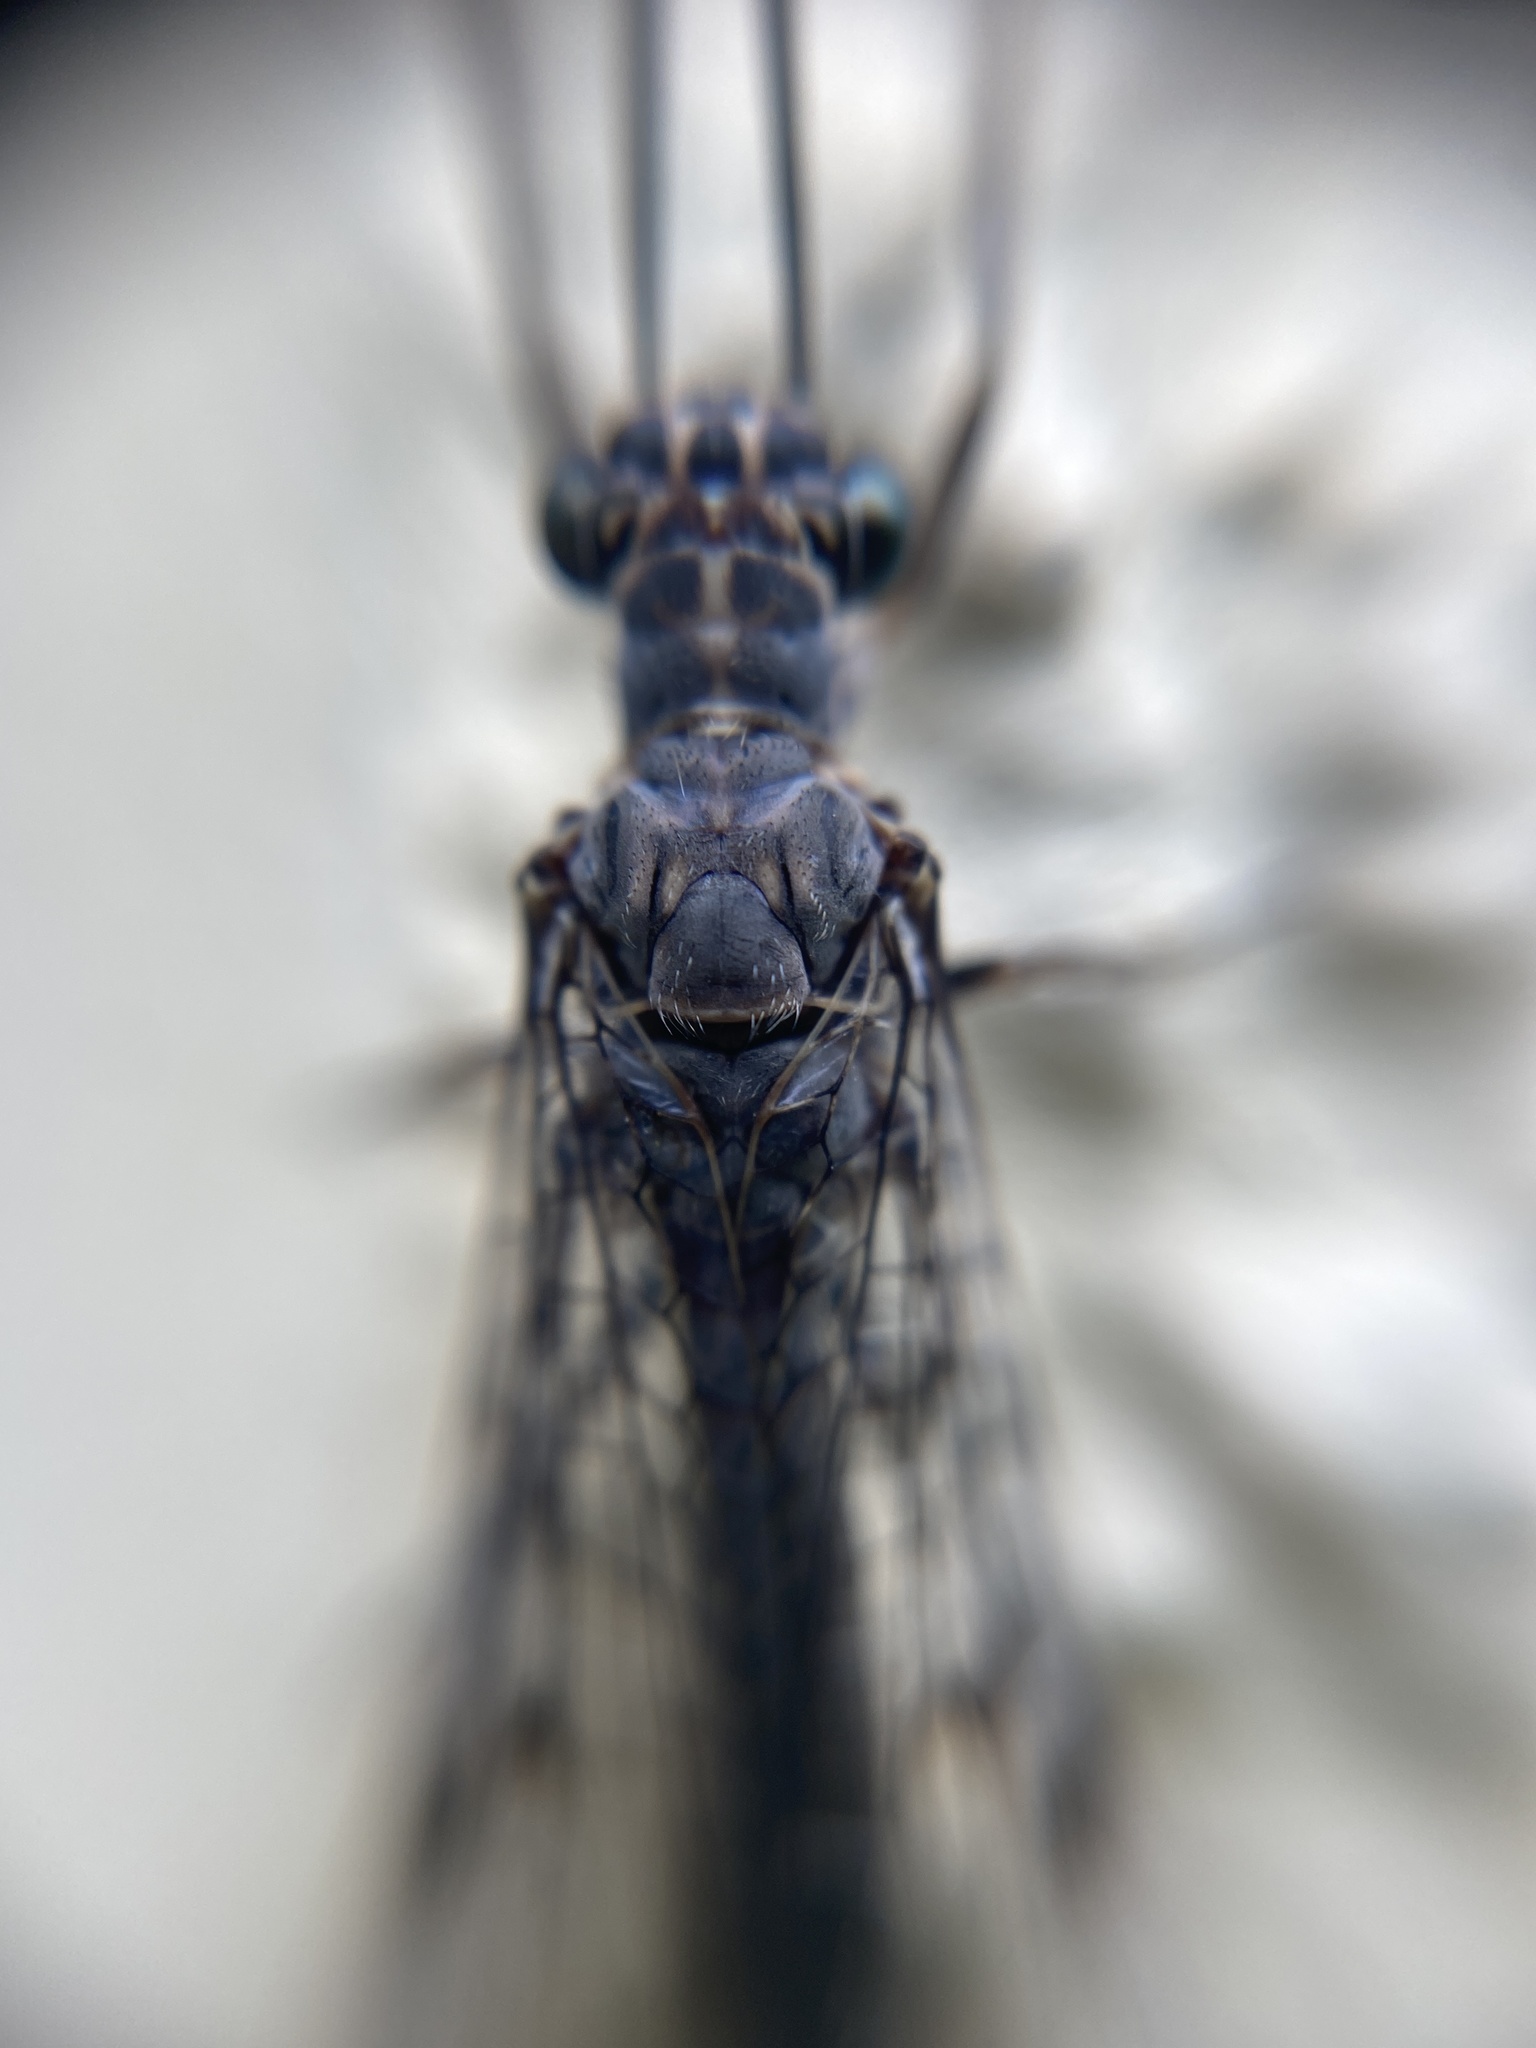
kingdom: Animalia
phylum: Arthropoda
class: Insecta
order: Neuroptera
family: Myrmeleontidae
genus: Euroleon
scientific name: Euroleon nostras
